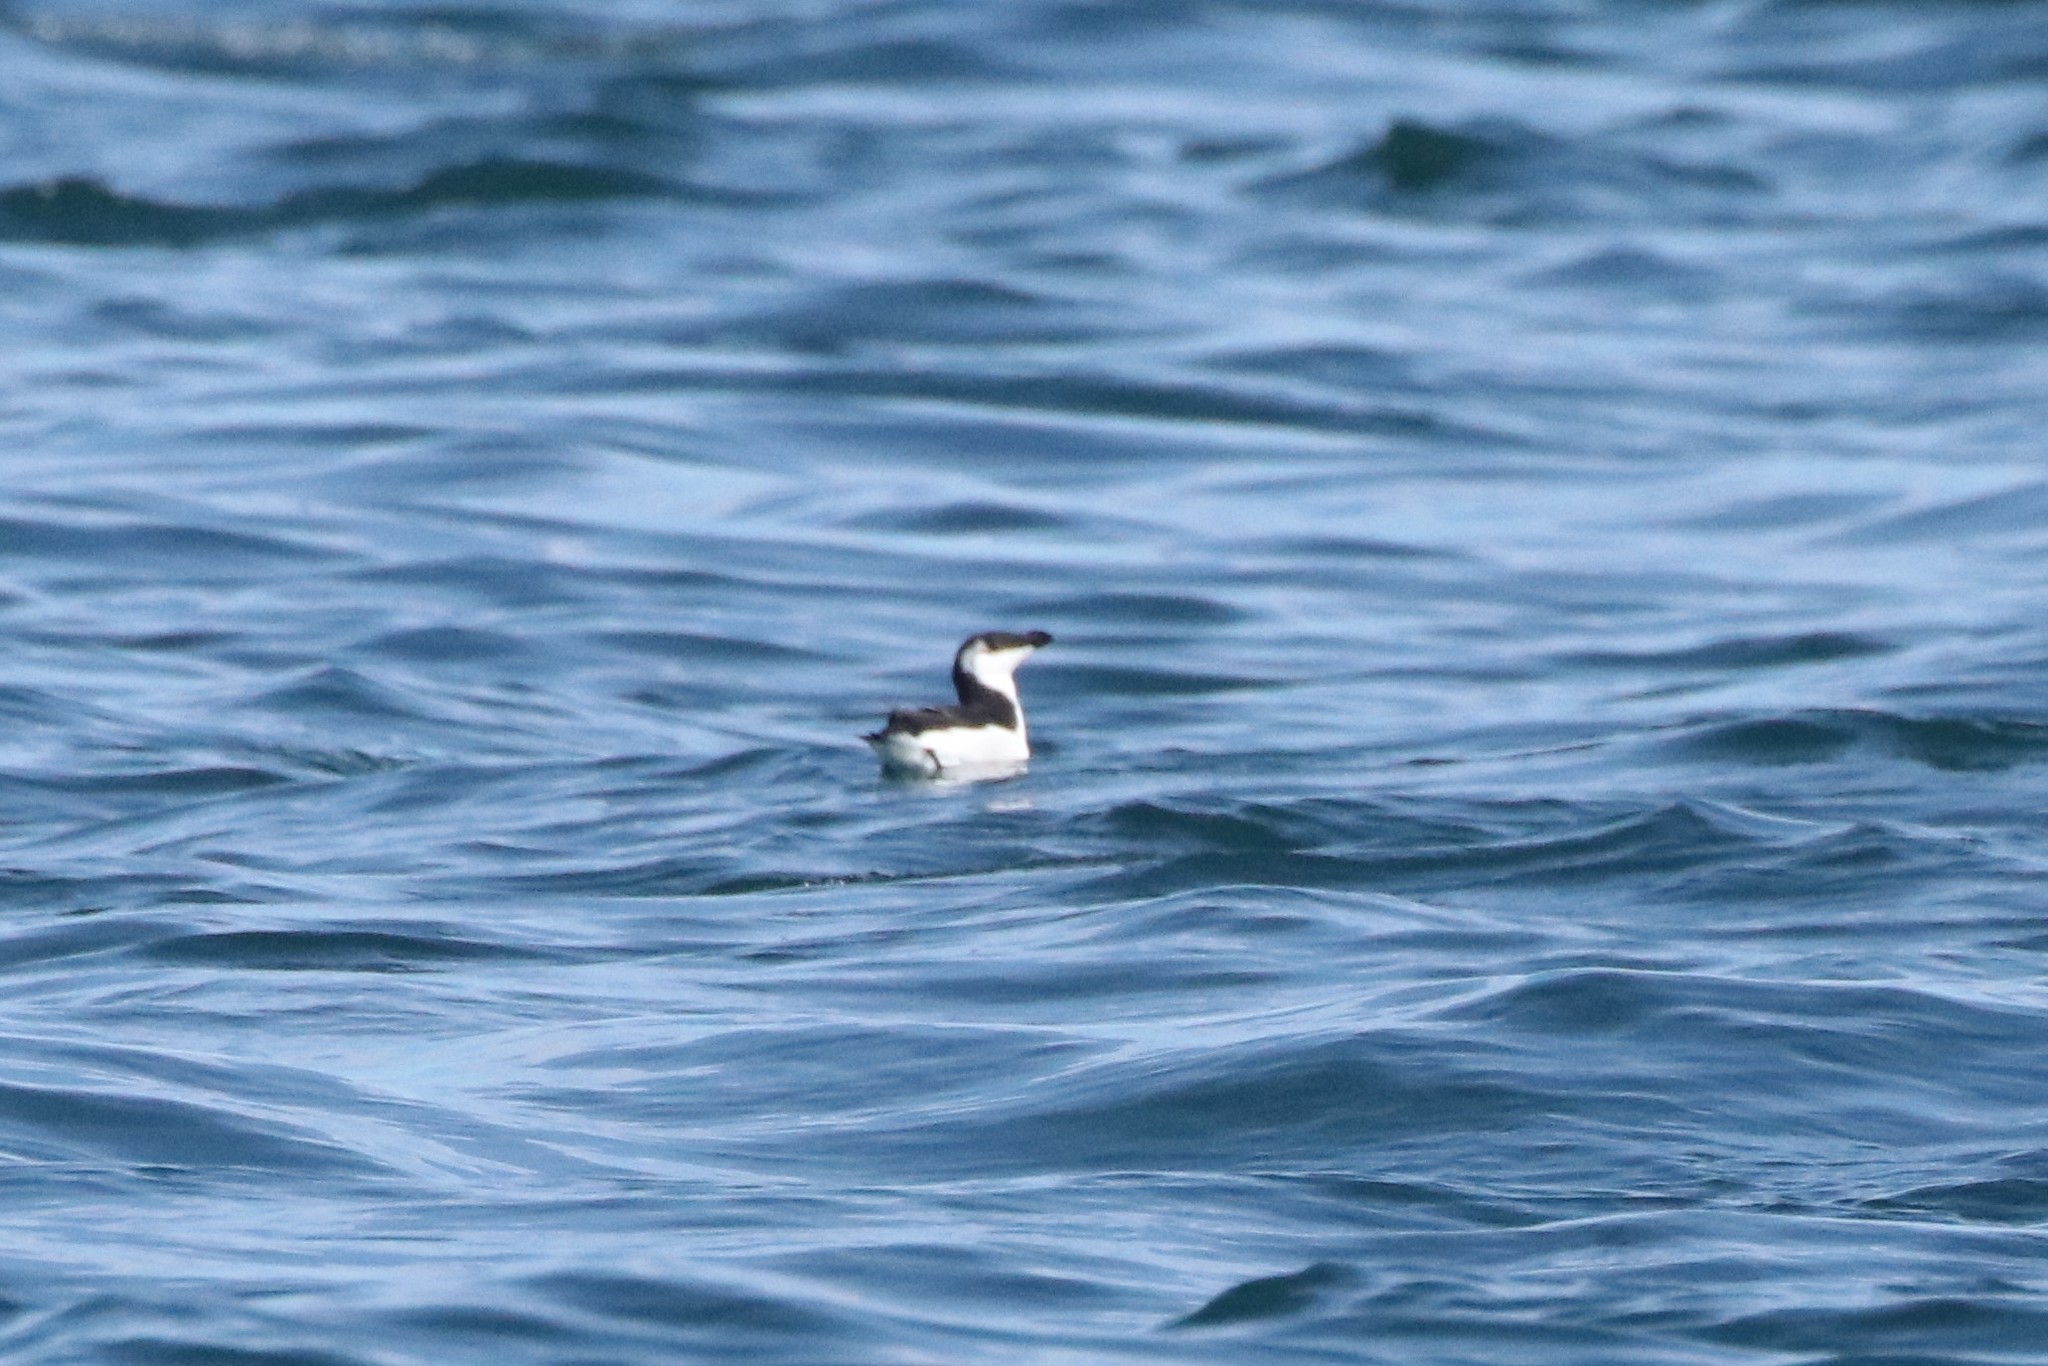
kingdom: Animalia
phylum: Chordata
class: Aves
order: Charadriiformes
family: Alcidae
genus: Alca
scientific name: Alca torda
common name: Razorbill
